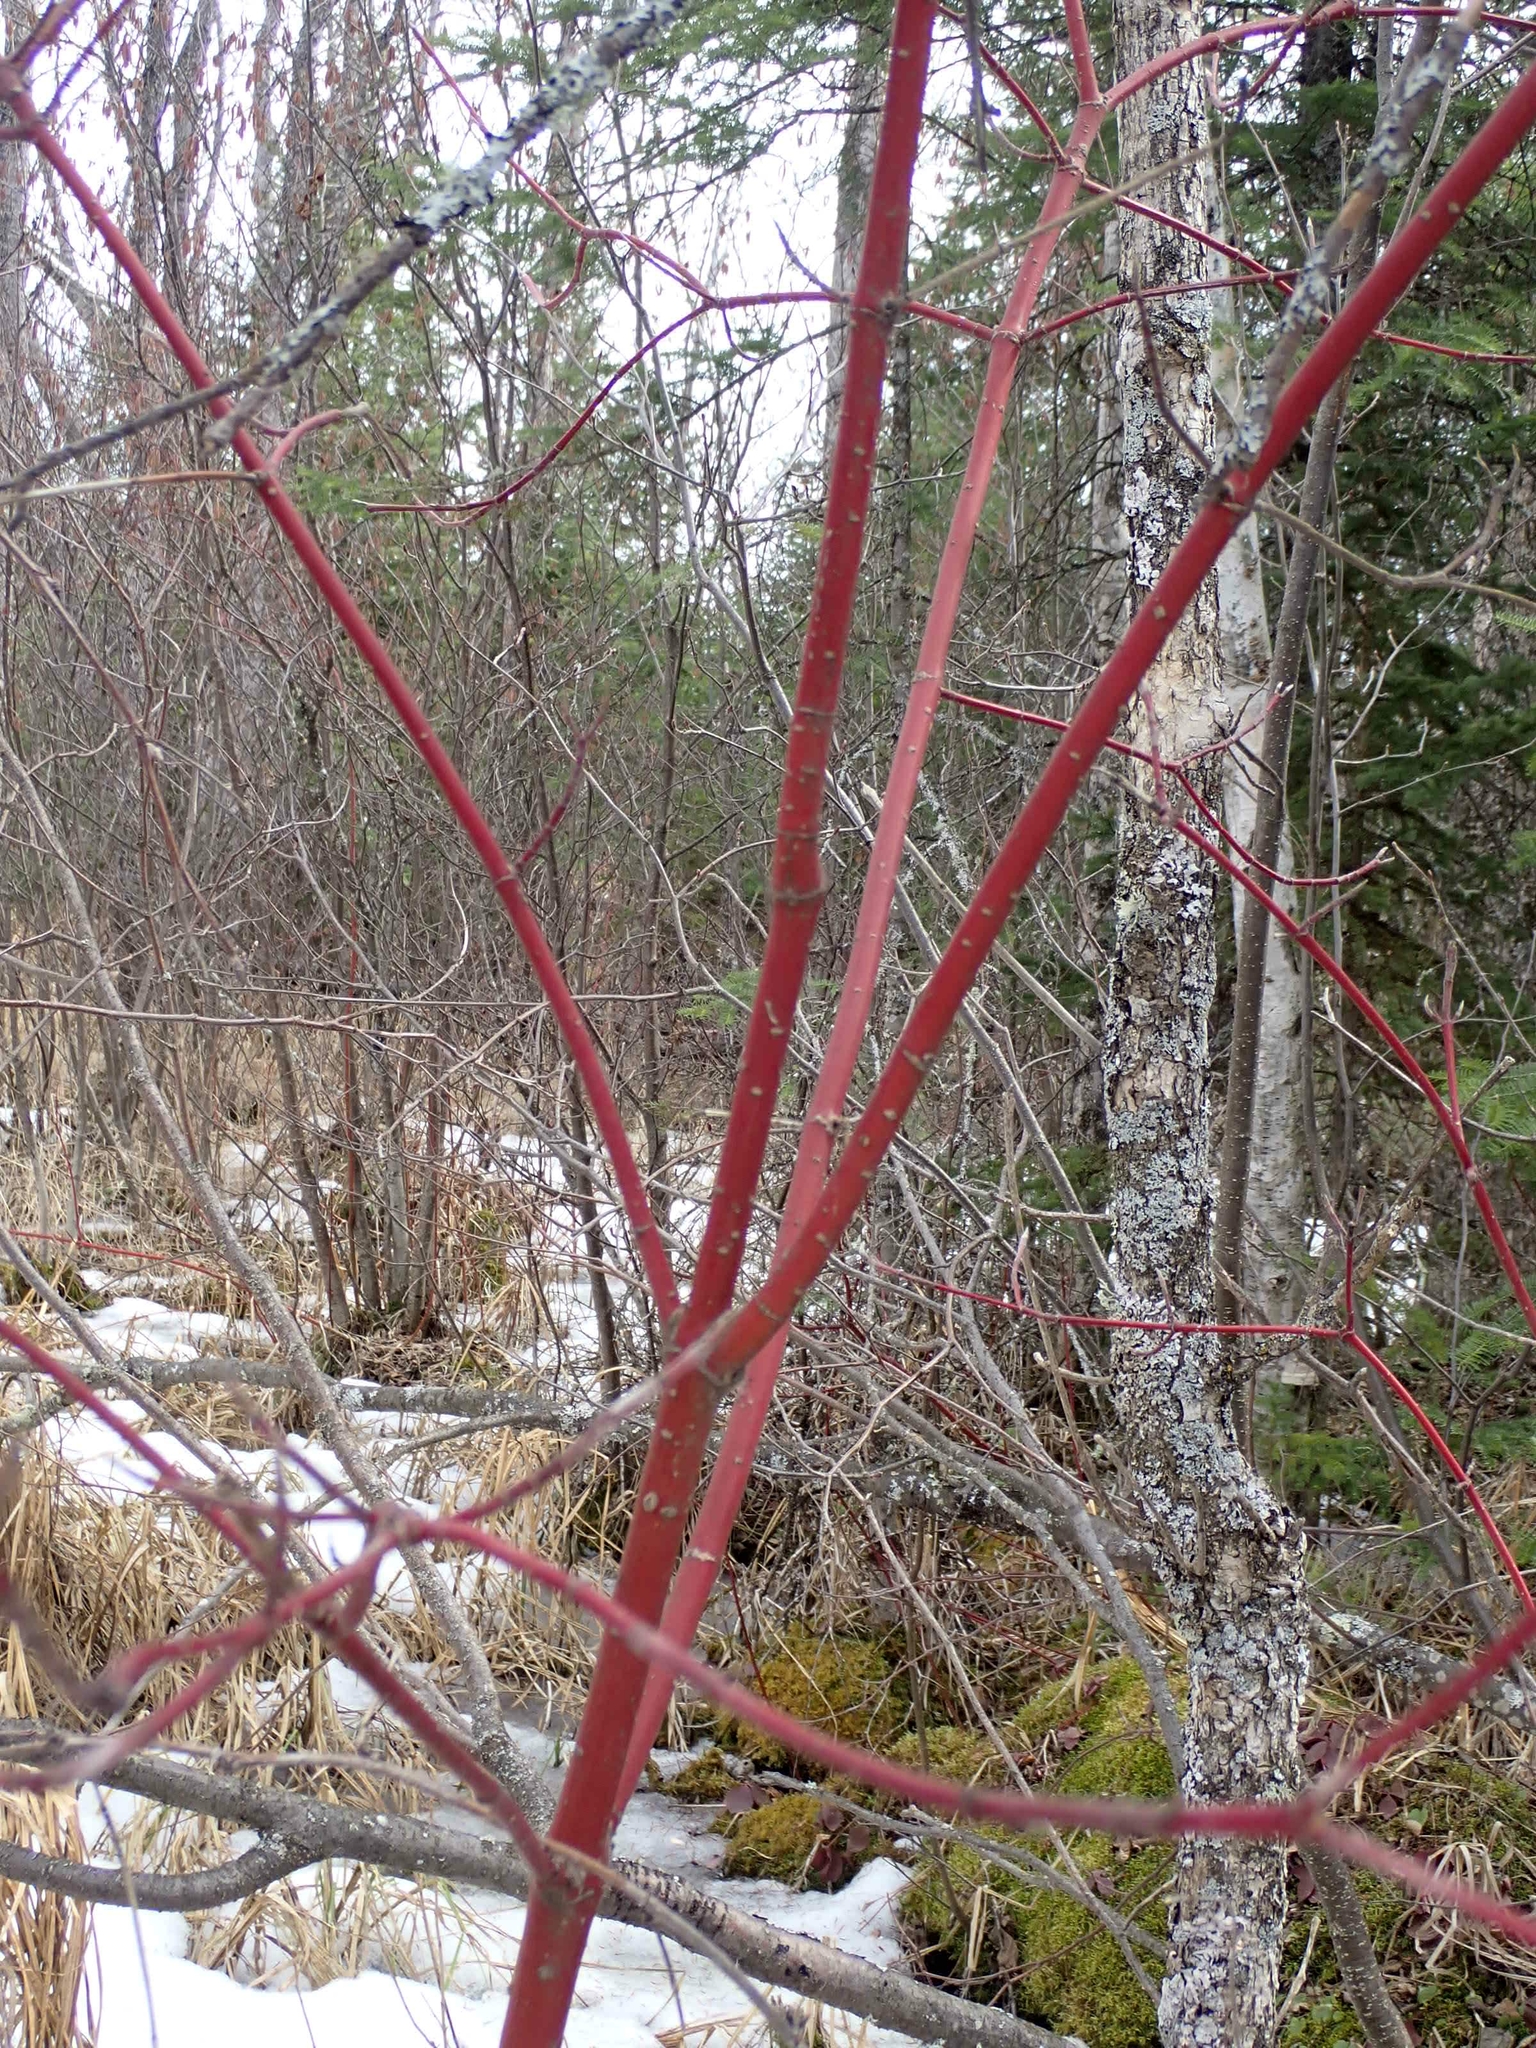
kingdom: Plantae
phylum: Tracheophyta
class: Magnoliopsida
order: Cornales
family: Cornaceae
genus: Cornus
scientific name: Cornus sericea
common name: Red-osier dogwood
